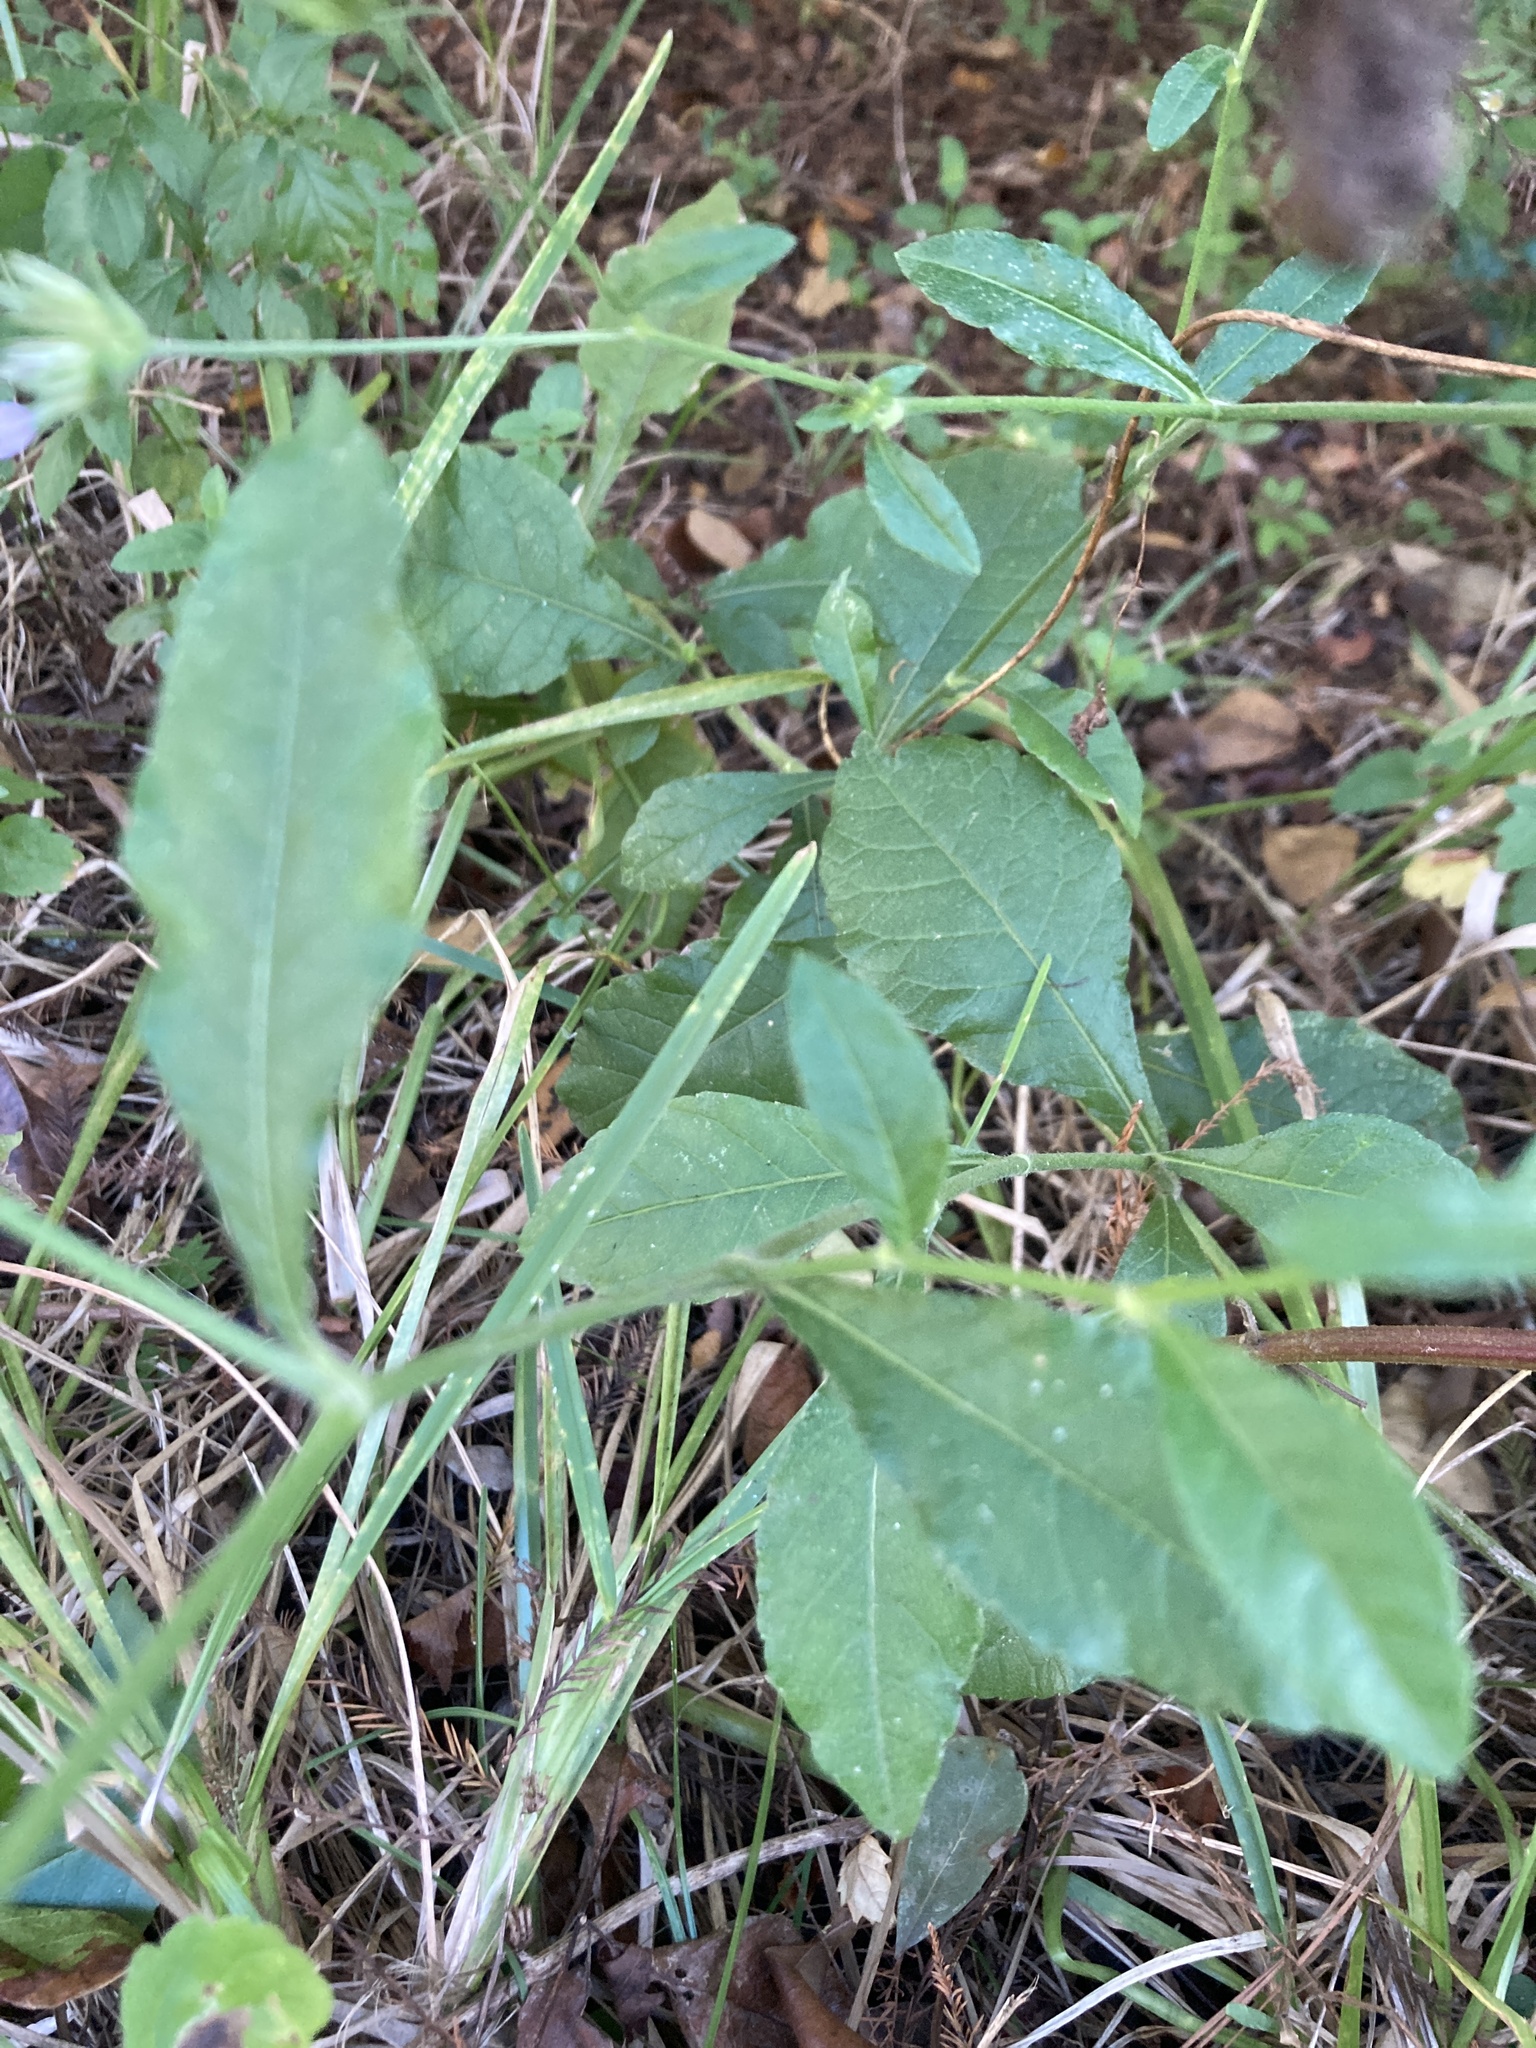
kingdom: Plantae
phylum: Tracheophyta
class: Magnoliopsida
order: Asterales
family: Asteraceae
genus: Elephantopus
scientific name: Elephantopus carolinianus
